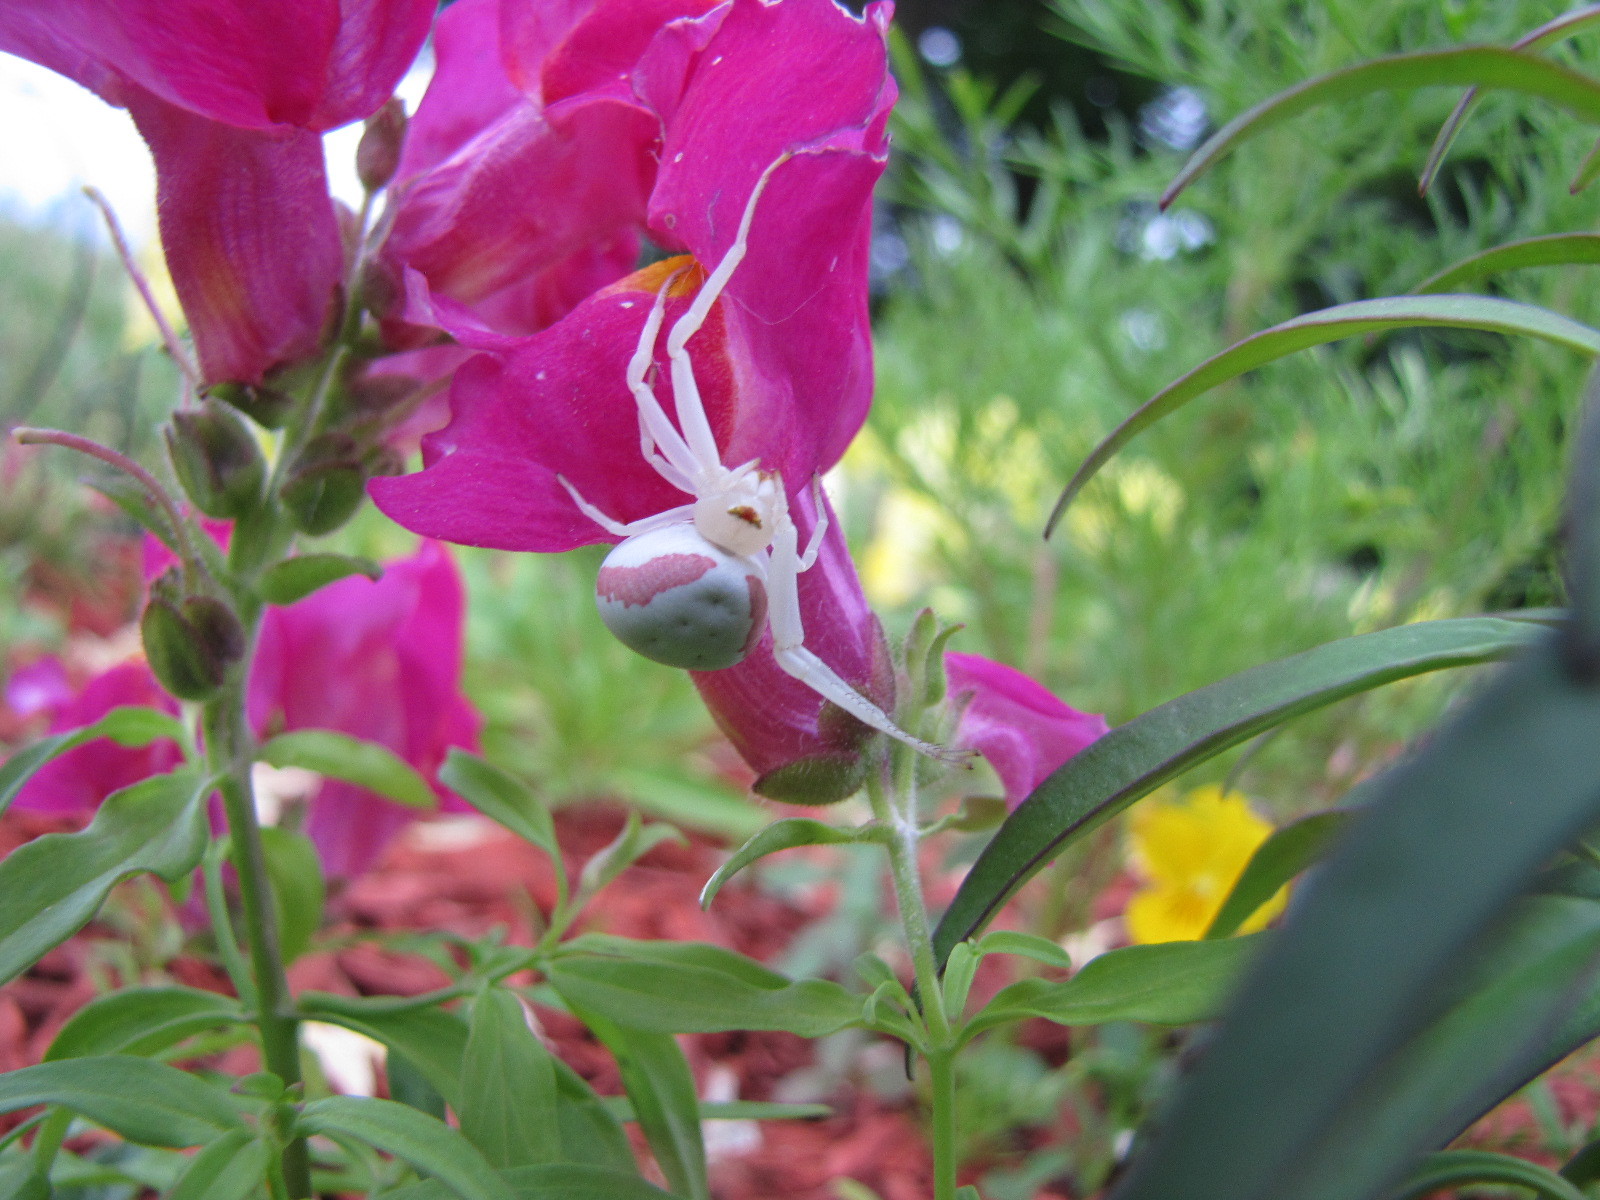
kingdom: Animalia
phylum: Arthropoda
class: Arachnida
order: Araneae
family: Thomisidae
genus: Misumena
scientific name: Misumena vatia
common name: Goldenrod crab spider
